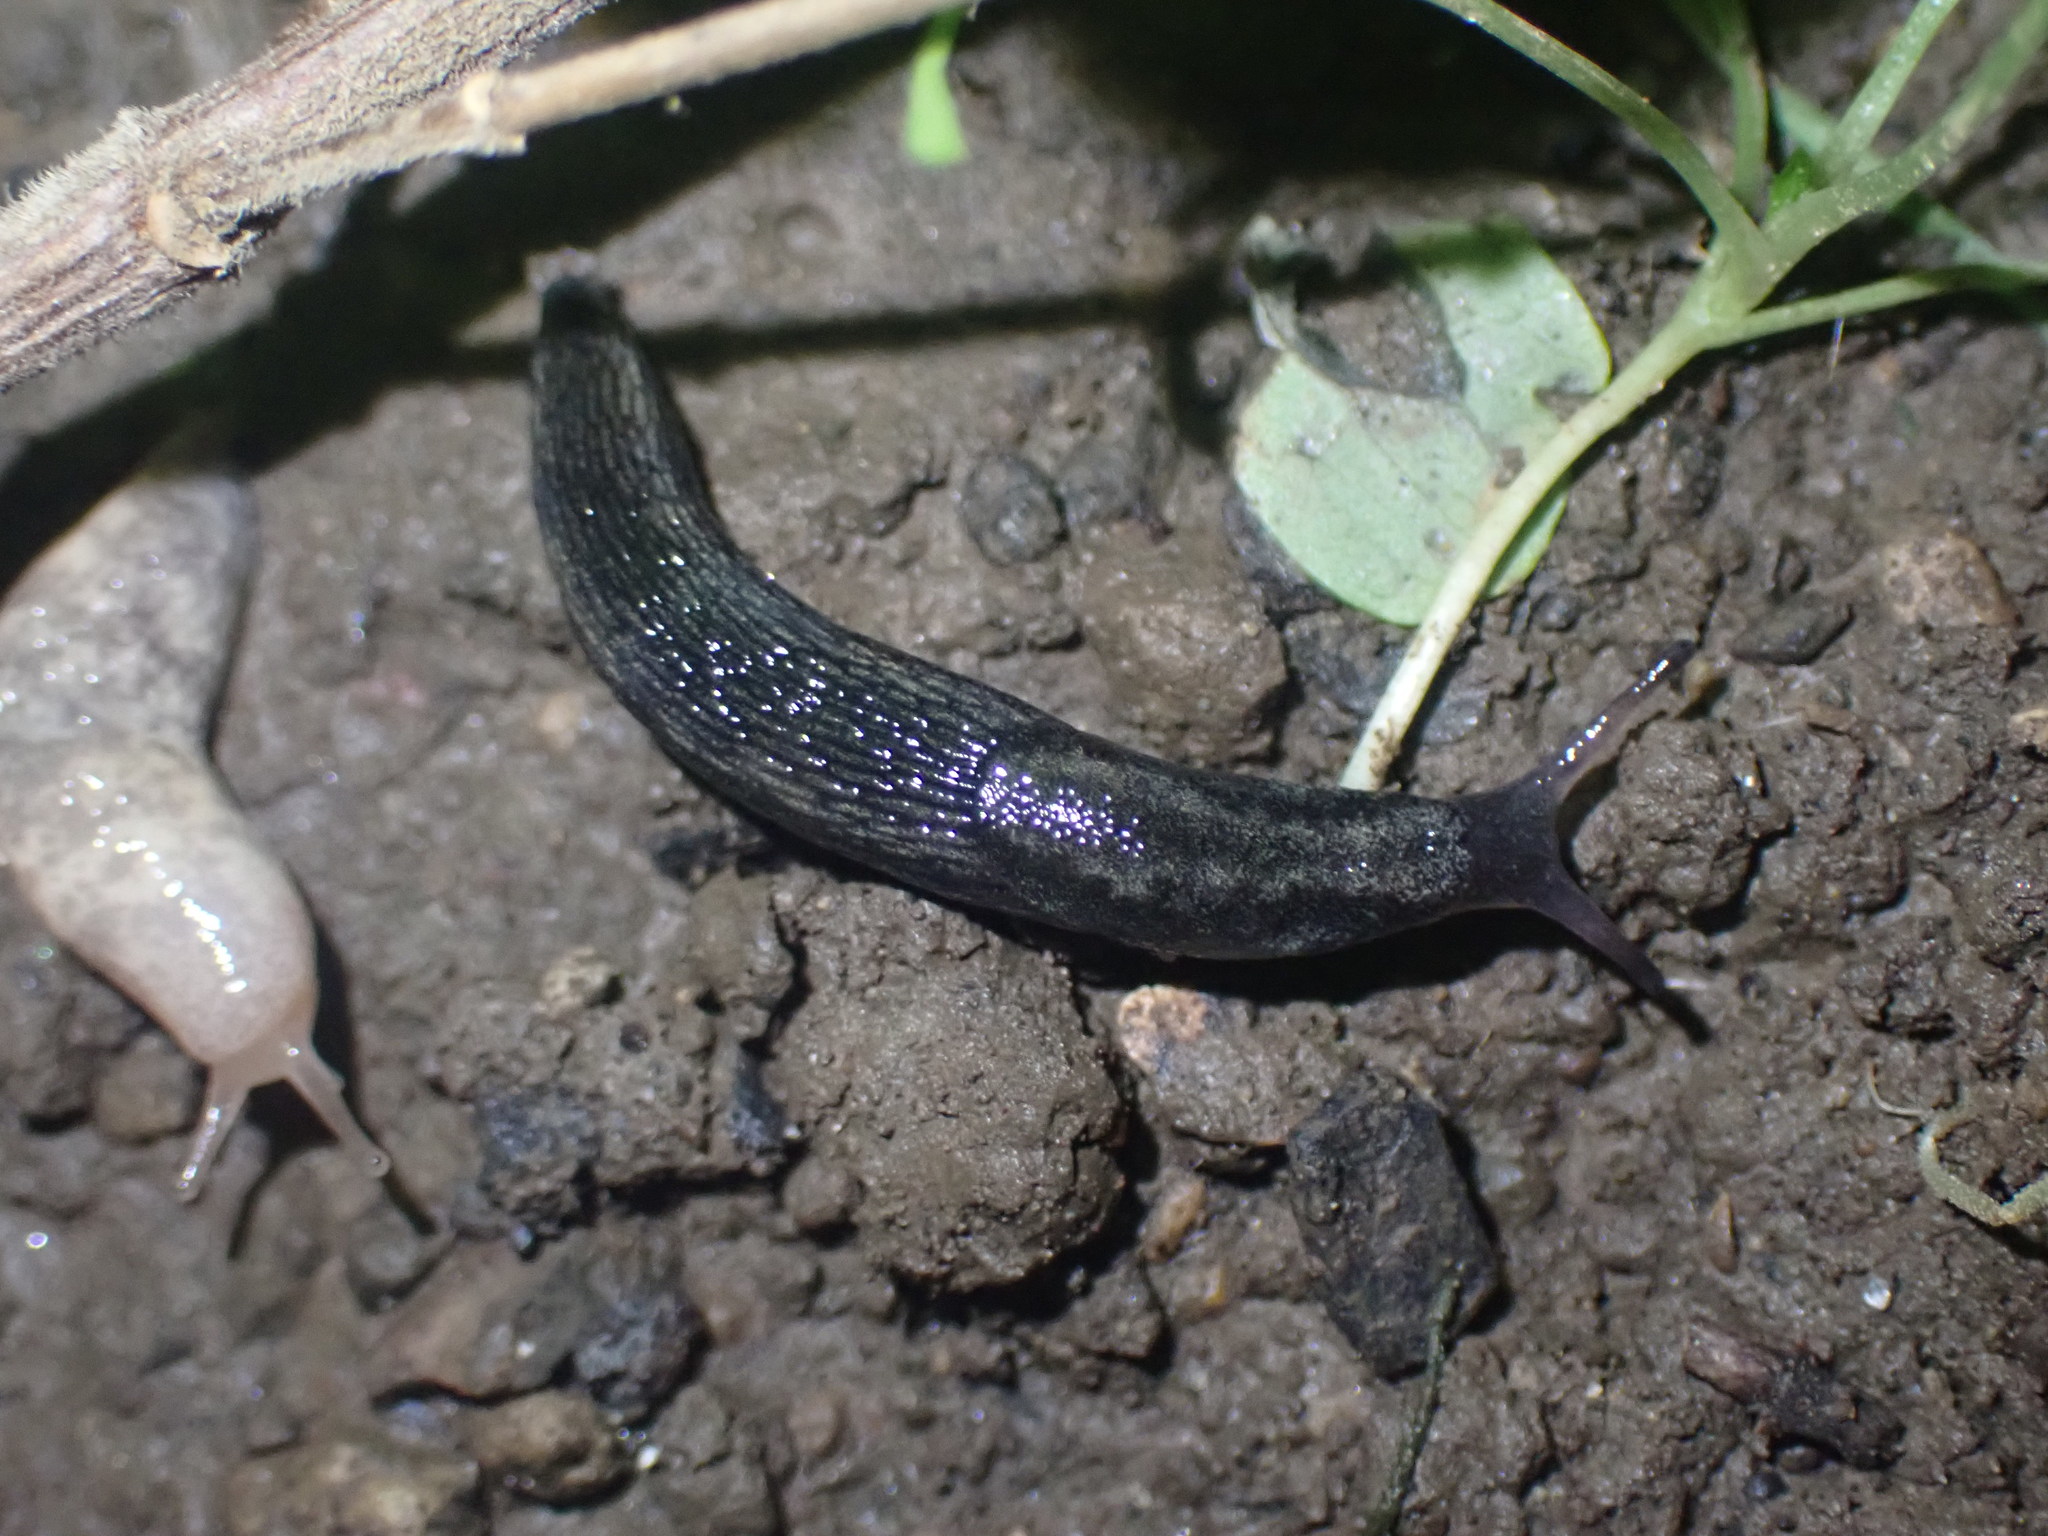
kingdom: Animalia
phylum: Mollusca
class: Gastropoda
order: Stylommatophora
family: Arionidae
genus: Kobeltia
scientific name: Kobeltia
